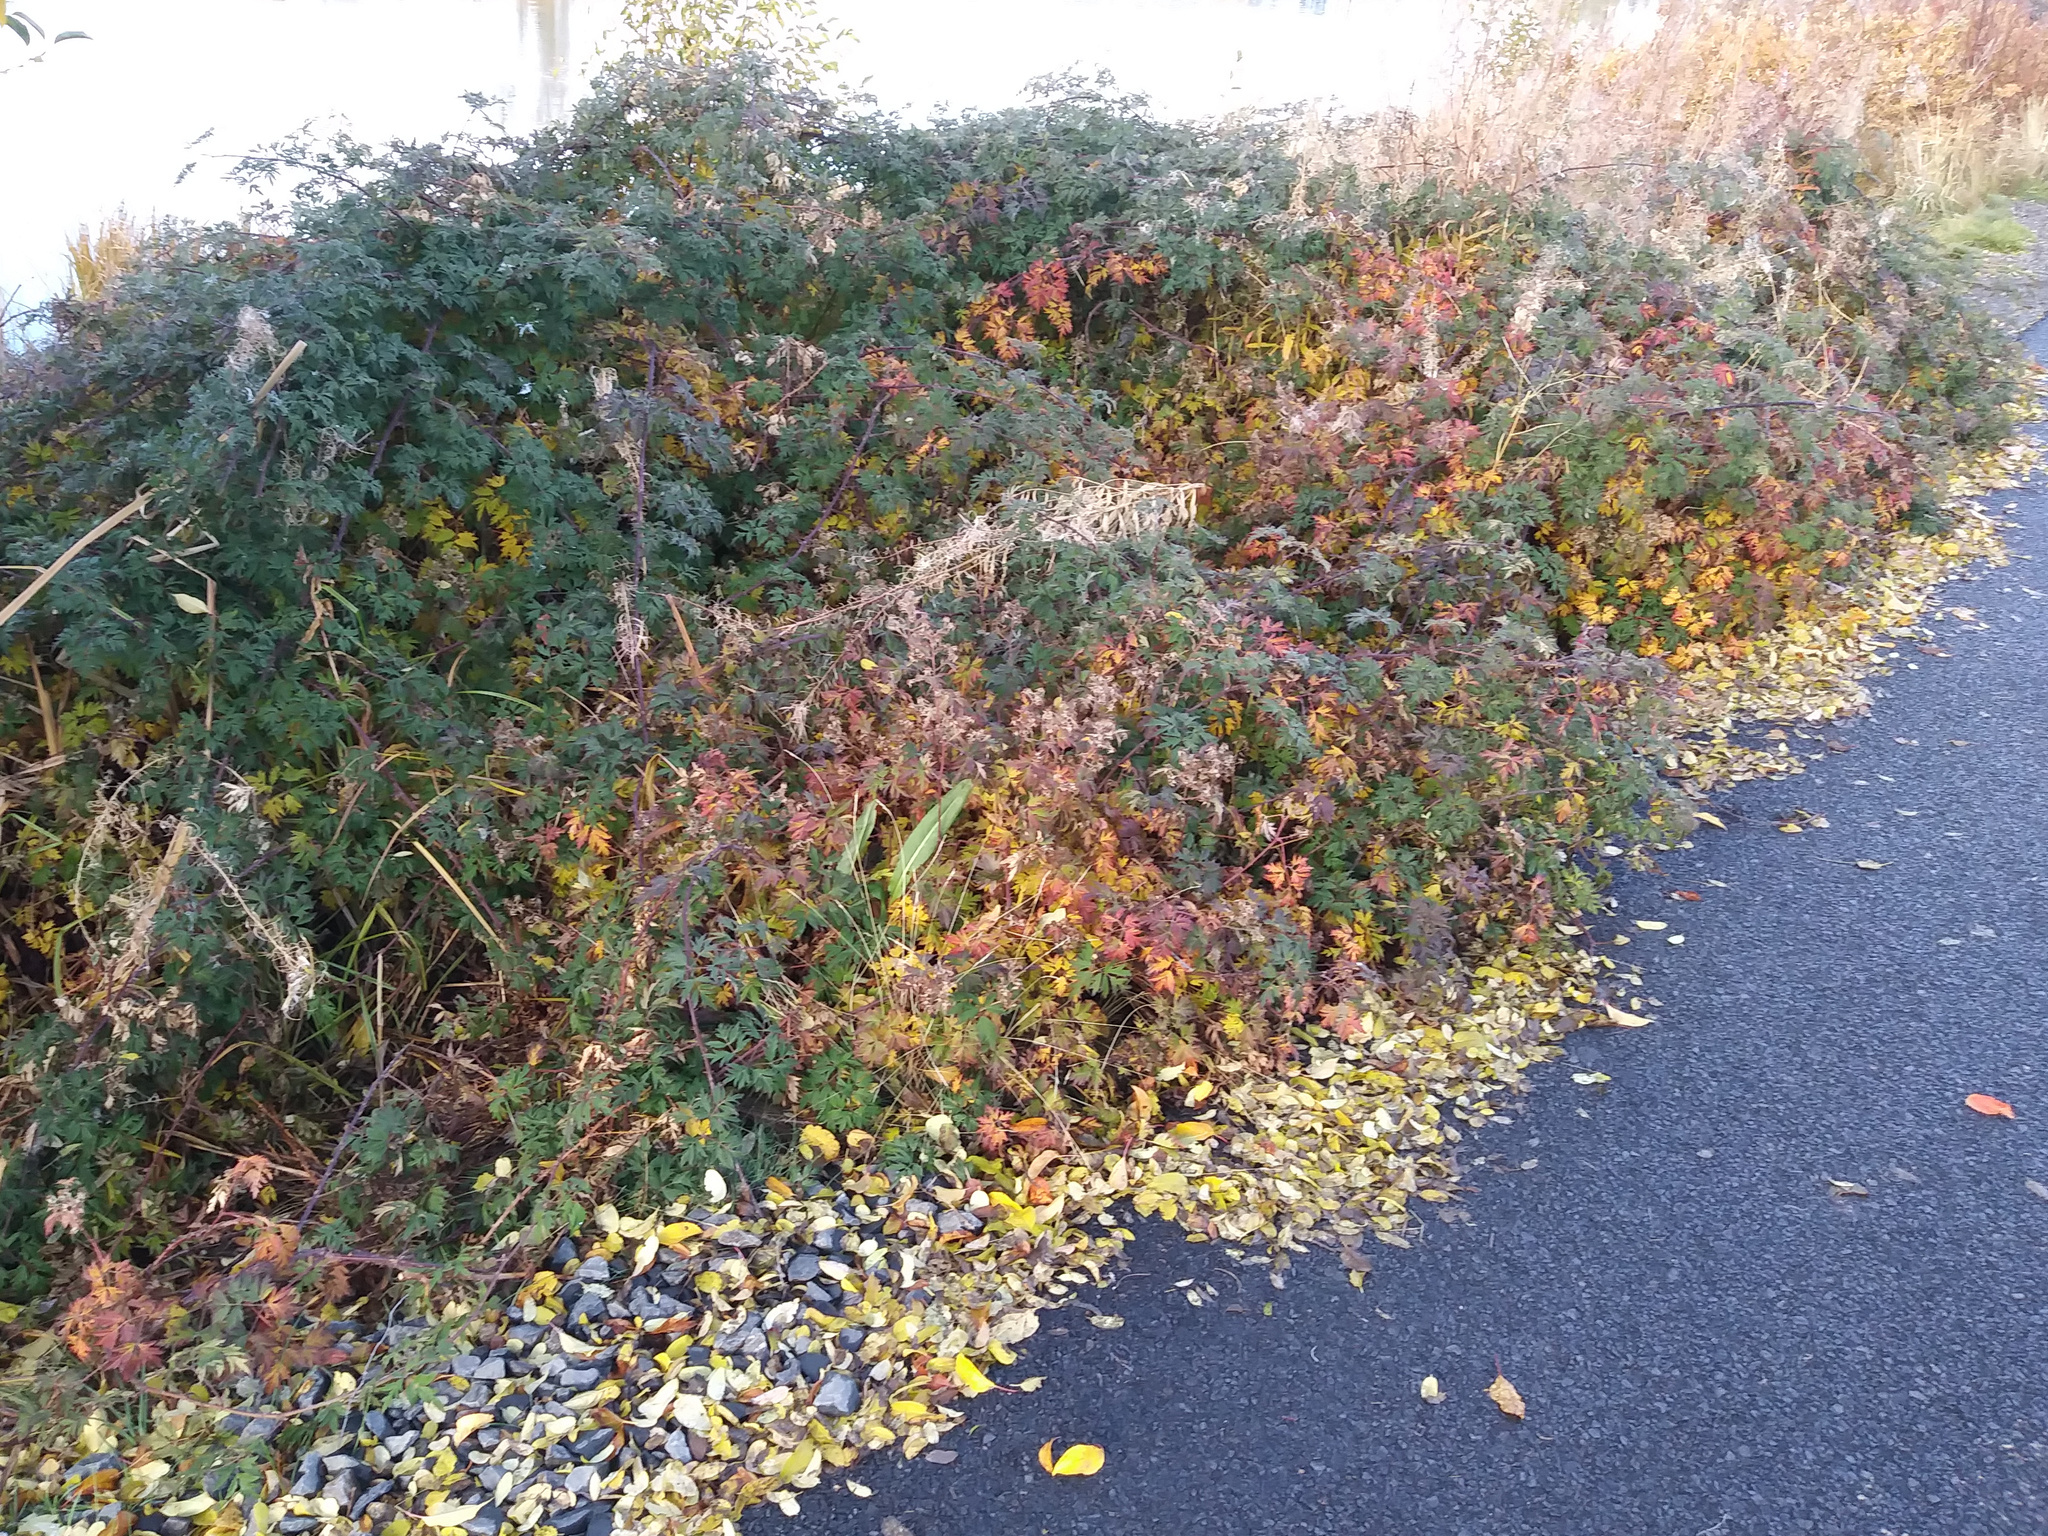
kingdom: Plantae
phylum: Tracheophyta
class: Magnoliopsida
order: Rosales
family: Rosaceae
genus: Rubus
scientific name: Rubus laciniatus
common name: Evergreen blackberry
